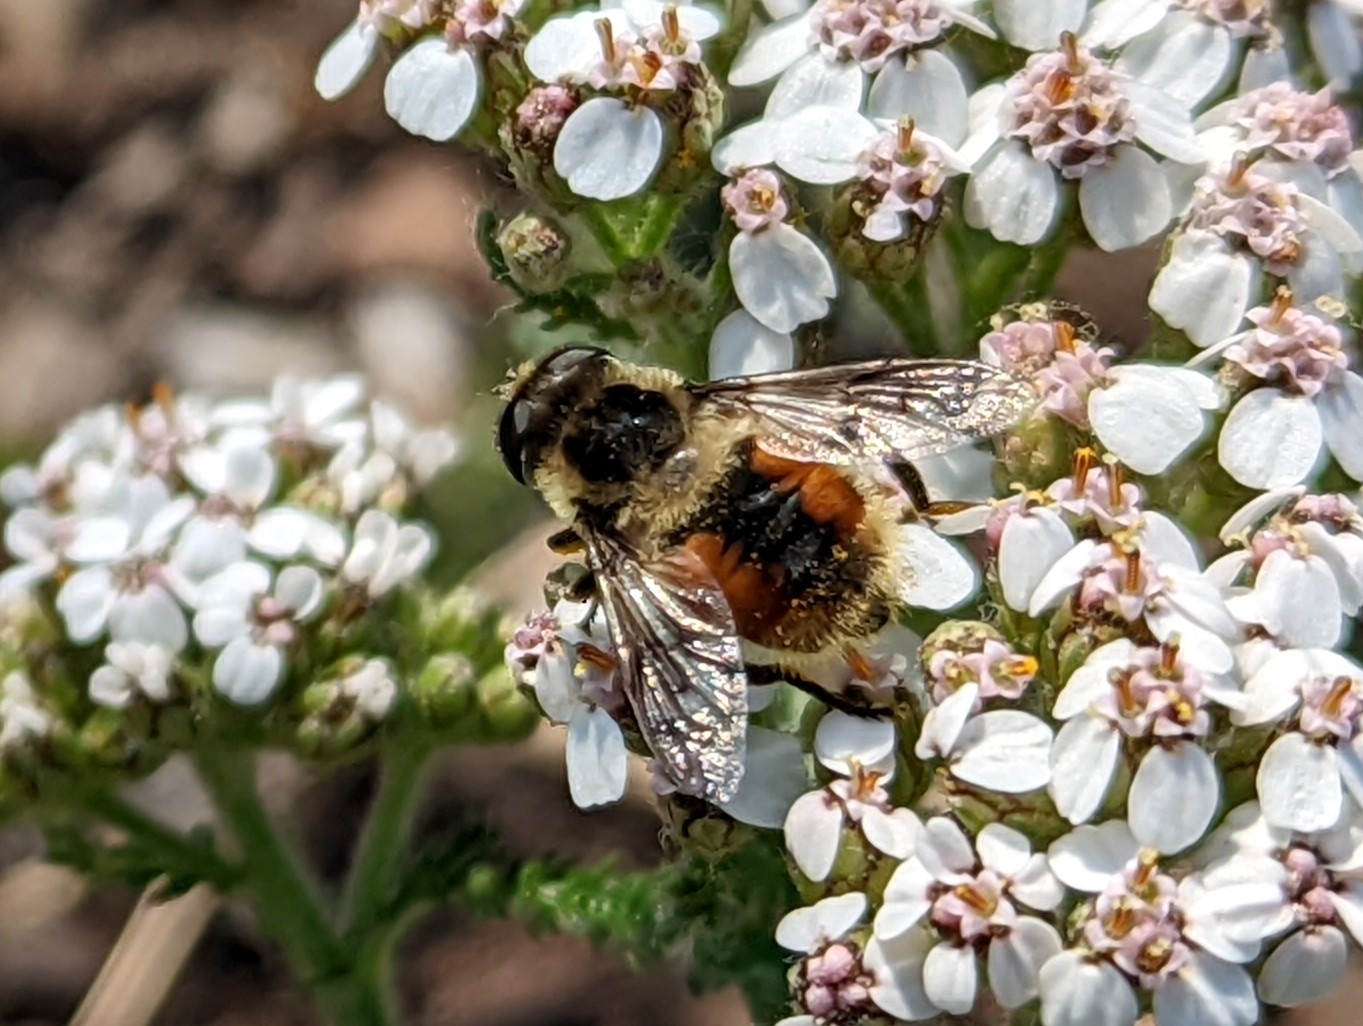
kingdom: Animalia
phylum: Arthropoda
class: Insecta
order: Diptera
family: Syrphidae
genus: Eristalis
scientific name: Eristalis anthophorina
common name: Orange-spotted drone fly
